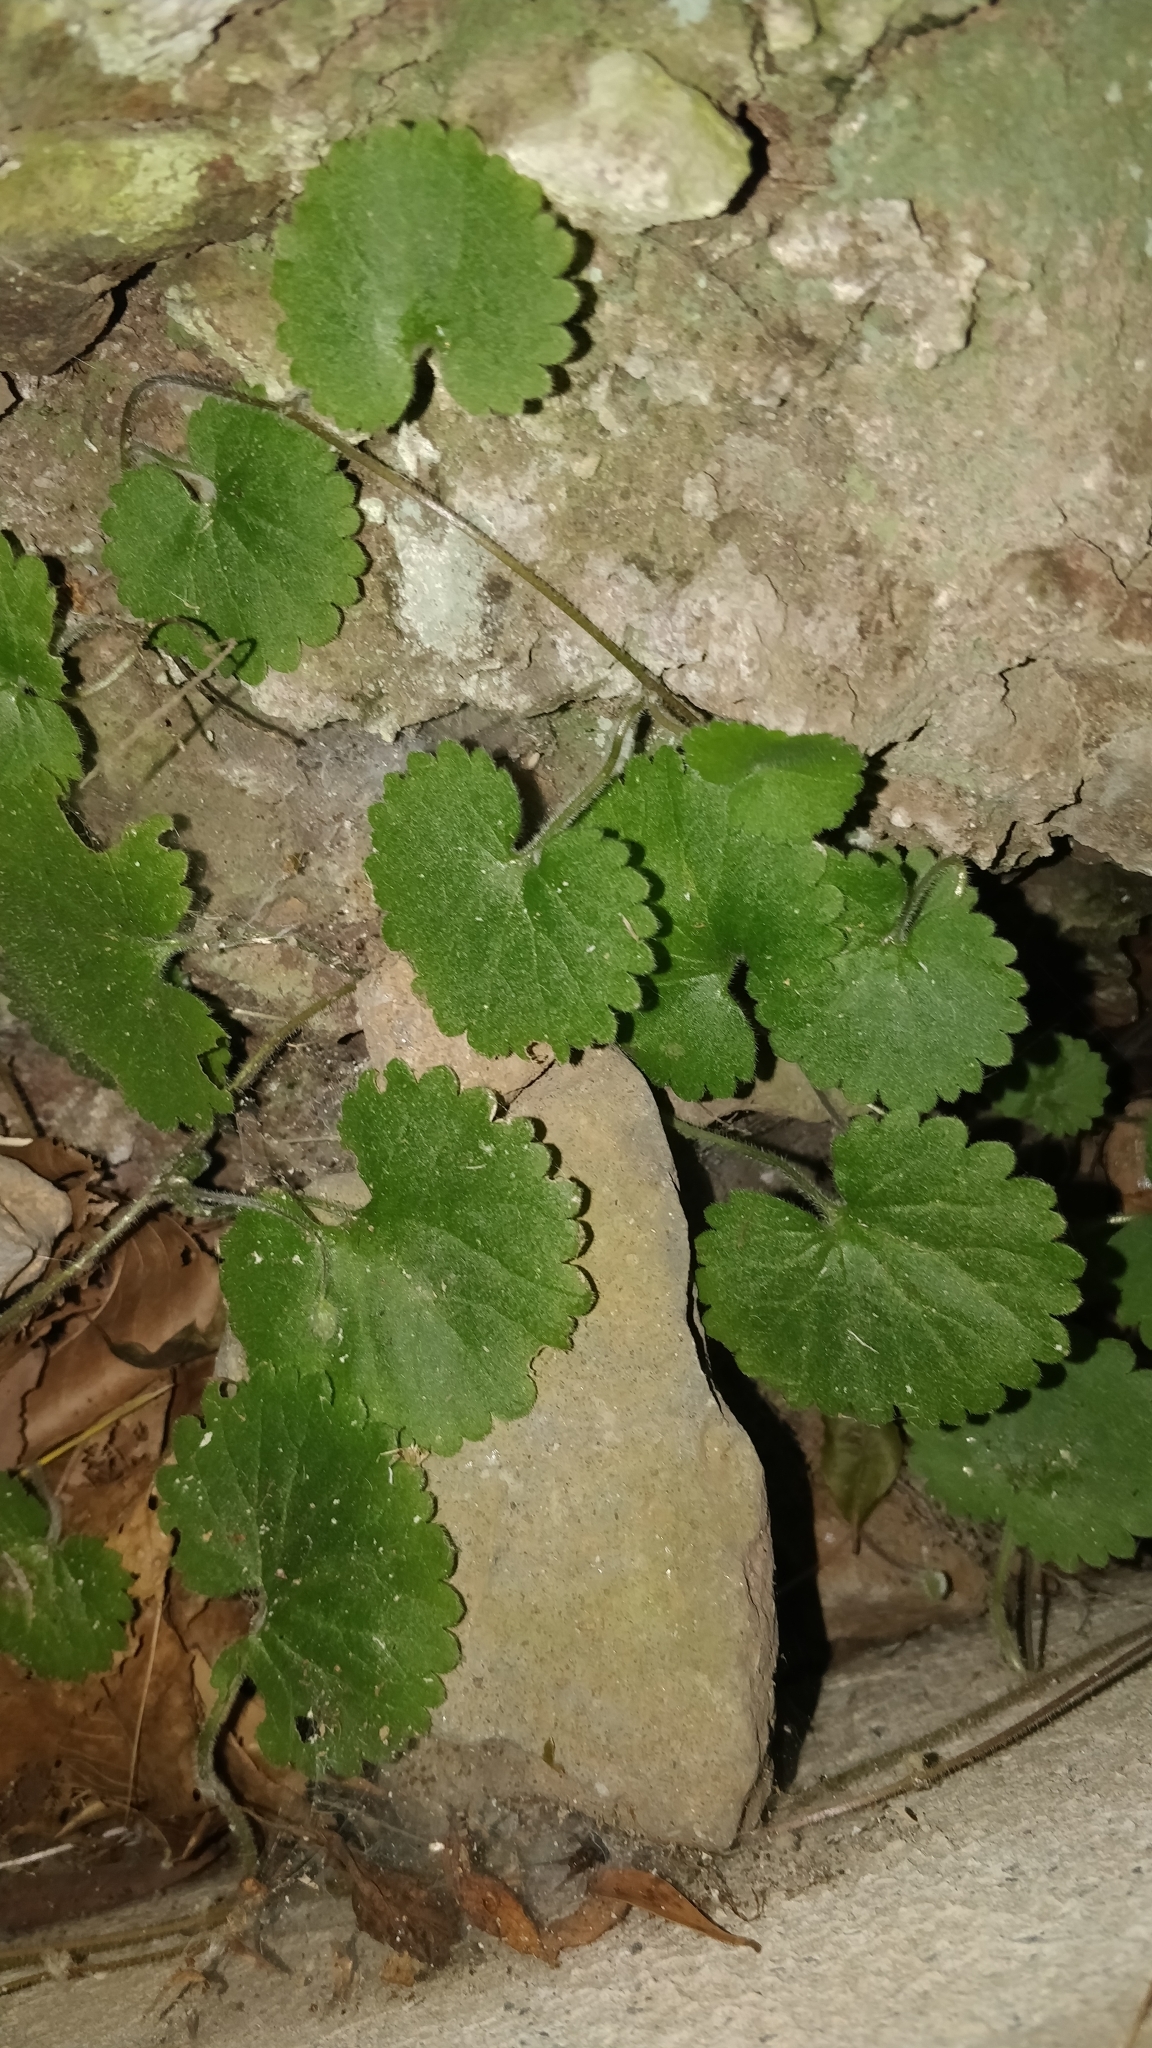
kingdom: Plantae
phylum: Tracheophyta
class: Magnoliopsida
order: Lamiales
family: Plantaginaceae
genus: Sibthorpia
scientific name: Sibthorpia peregrina
